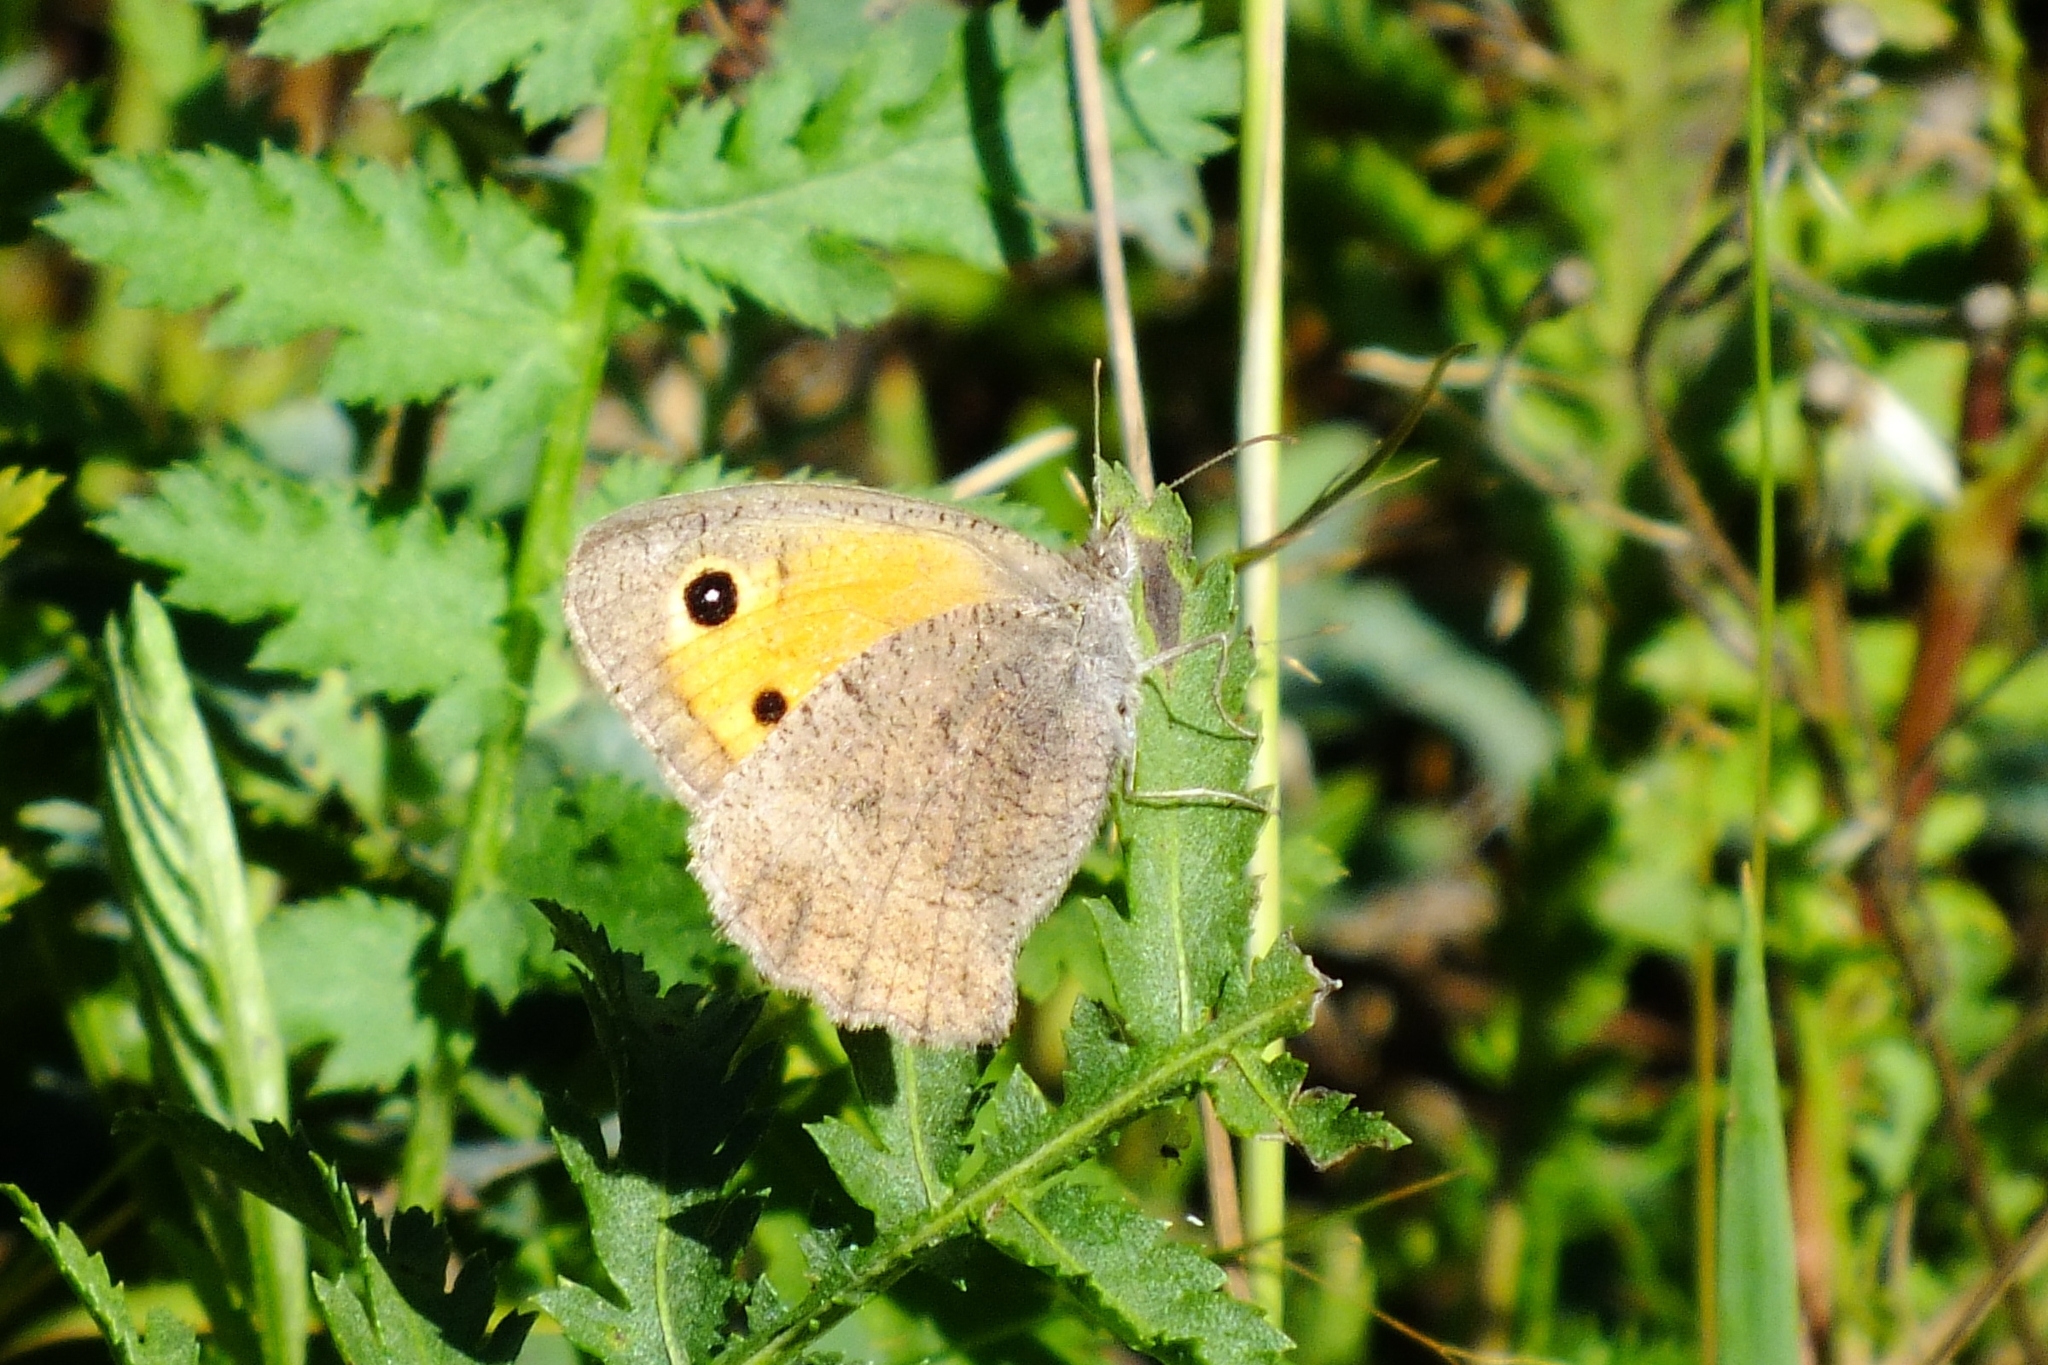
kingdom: Animalia
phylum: Arthropoda
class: Insecta
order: Lepidoptera
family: Nymphalidae
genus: Hyponephele
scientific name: Hyponephele lycaon
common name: Dusky meadow brown
